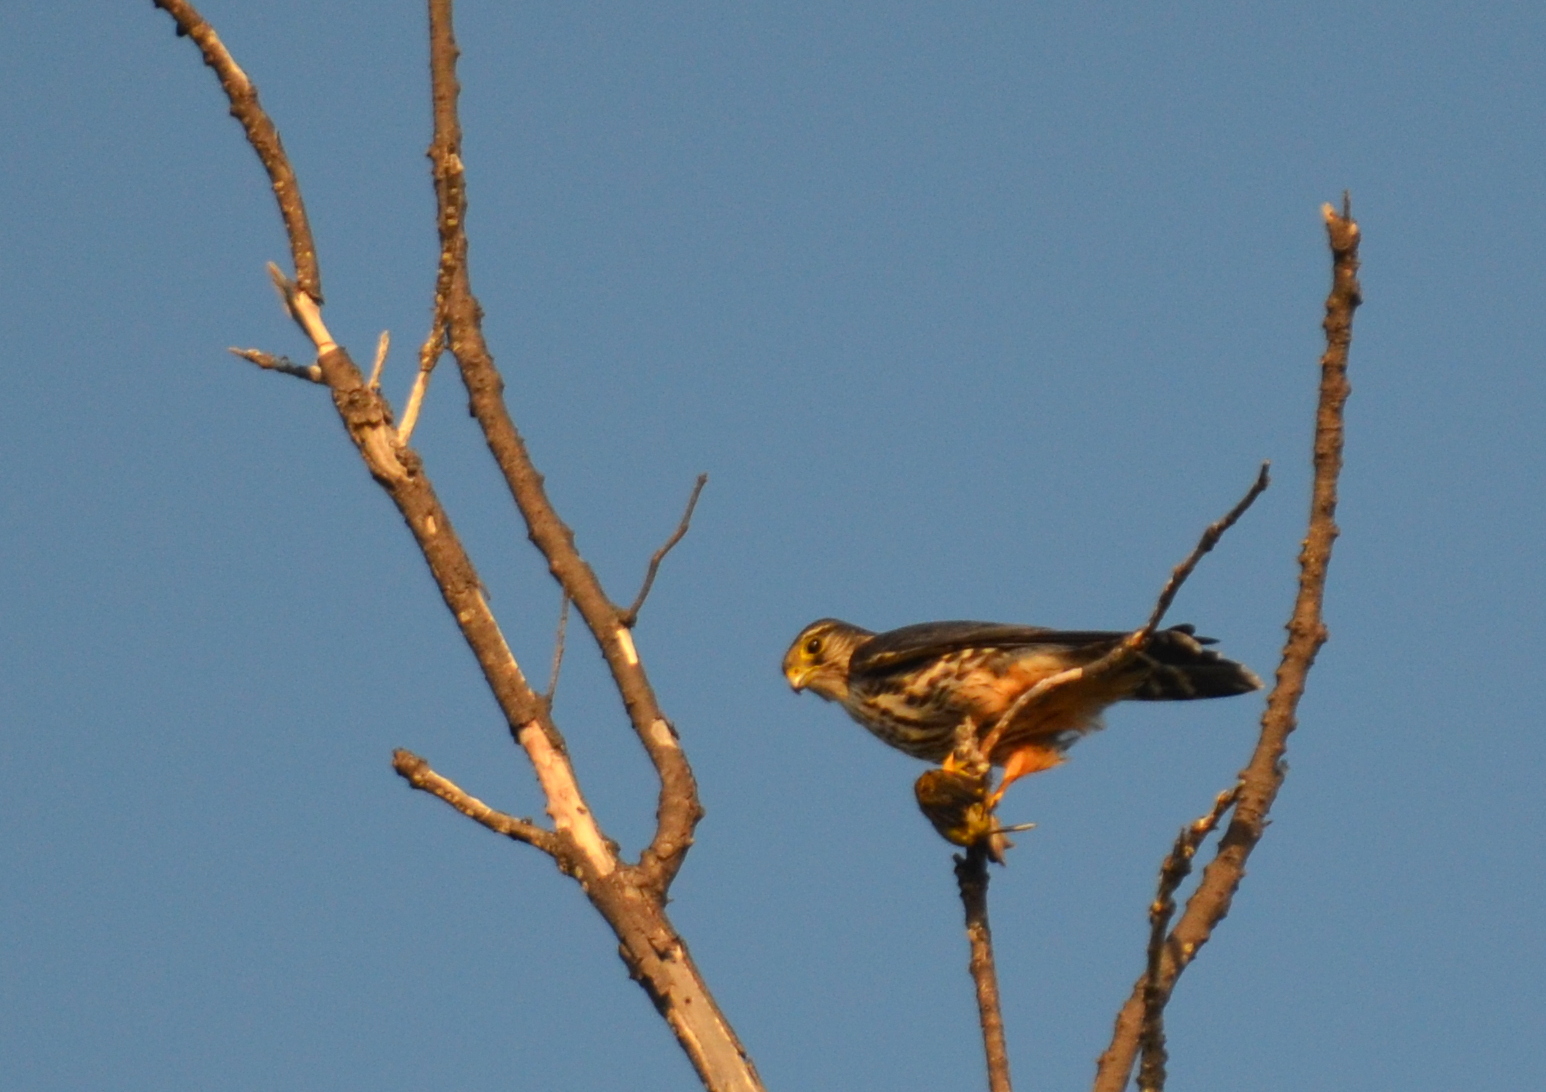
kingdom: Animalia
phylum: Chordata
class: Aves
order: Falconiformes
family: Falconidae
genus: Falco
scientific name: Falco columbarius
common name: Merlin
